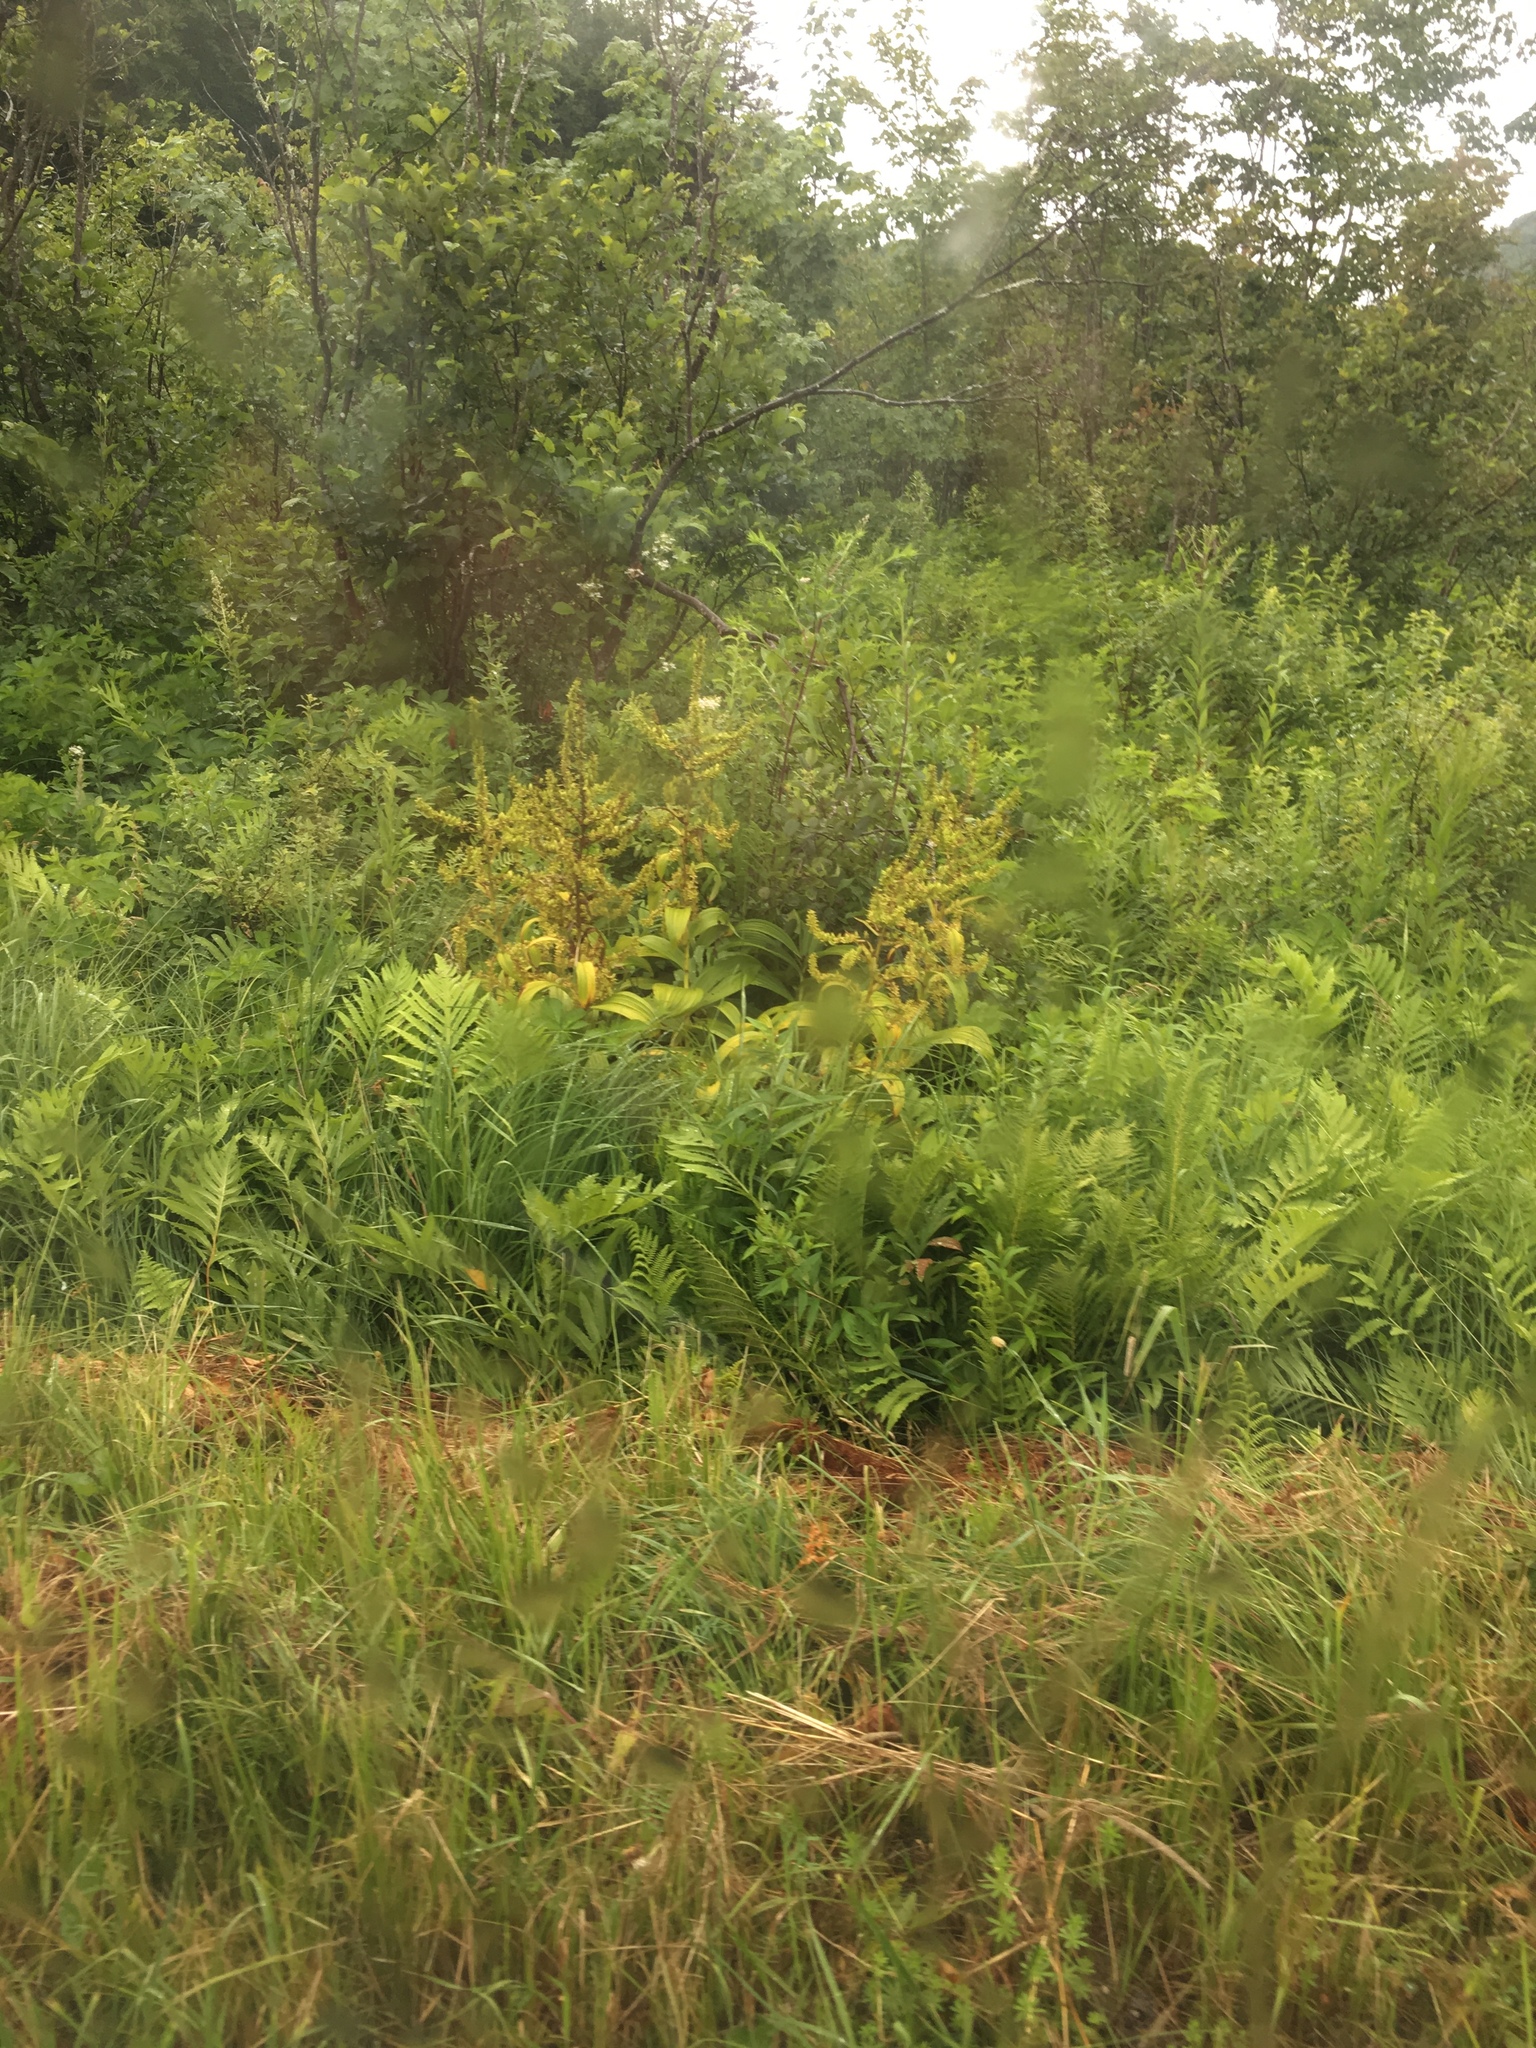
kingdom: Plantae
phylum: Tracheophyta
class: Liliopsida
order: Liliales
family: Melanthiaceae
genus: Veratrum
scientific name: Veratrum viride
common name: American false hellebore
